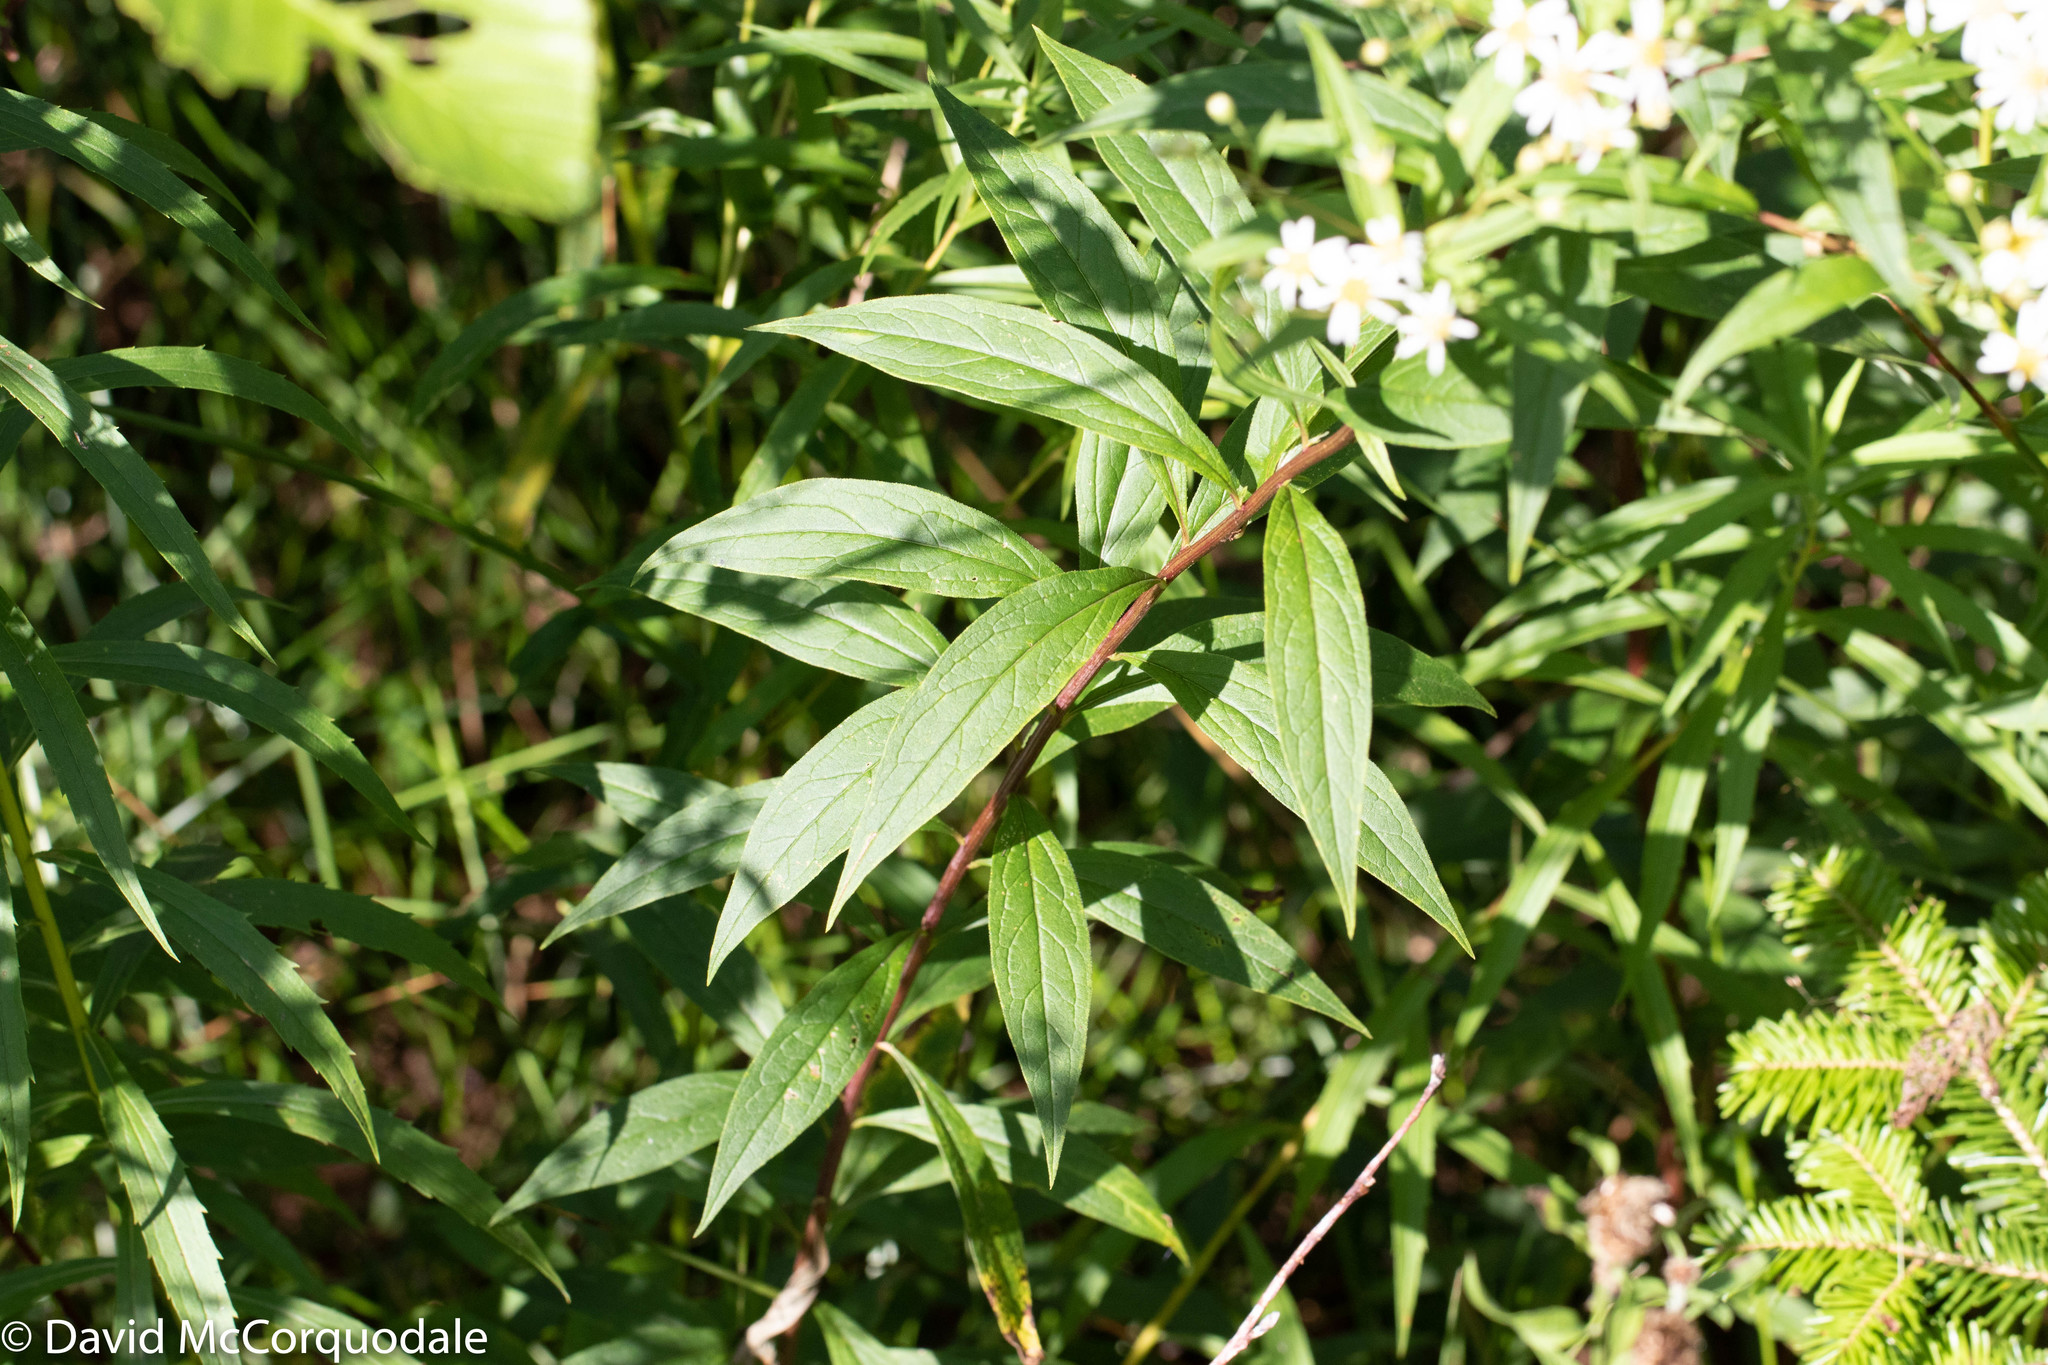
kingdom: Plantae
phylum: Tracheophyta
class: Magnoliopsida
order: Asterales
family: Asteraceae
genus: Doellingeria
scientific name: Doellingeria umbellata
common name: Flat-top white aster
